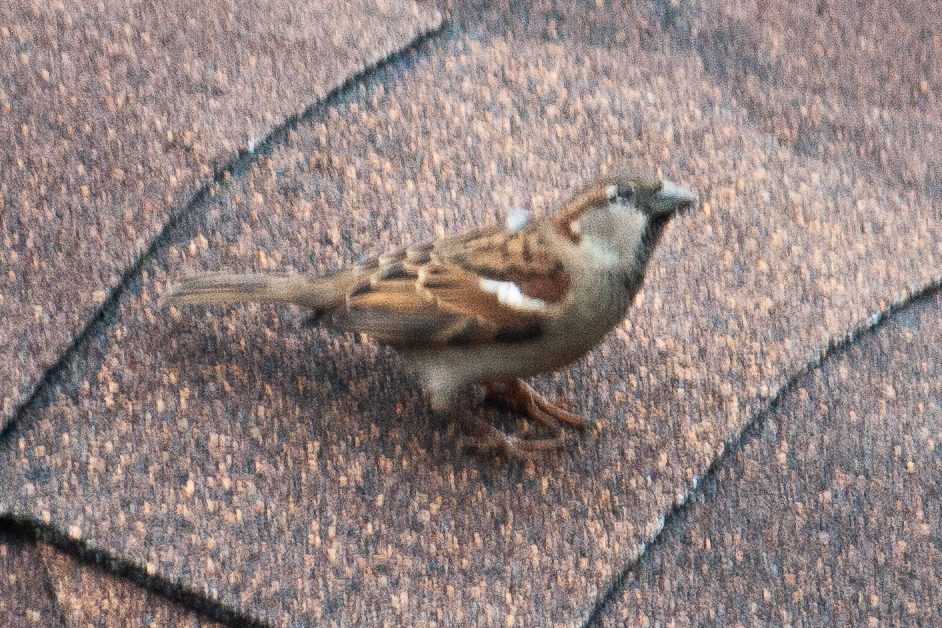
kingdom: Animalia
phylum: Chordata
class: Aves
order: Passeriformes
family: Passeridae
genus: Passer
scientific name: Passer domesticus
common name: House sparrow
